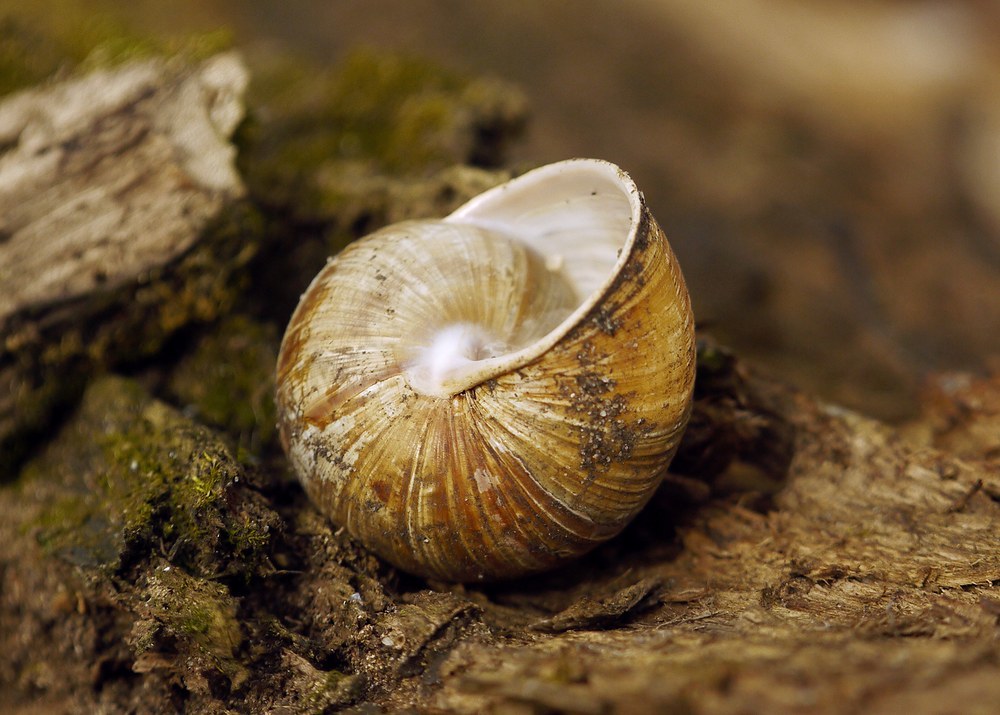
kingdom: Animalia
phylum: Mollusca
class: Gastropoda
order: Stylommatophora
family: Helicidae
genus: Helix
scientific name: Helix pomatia
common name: Roman snail
